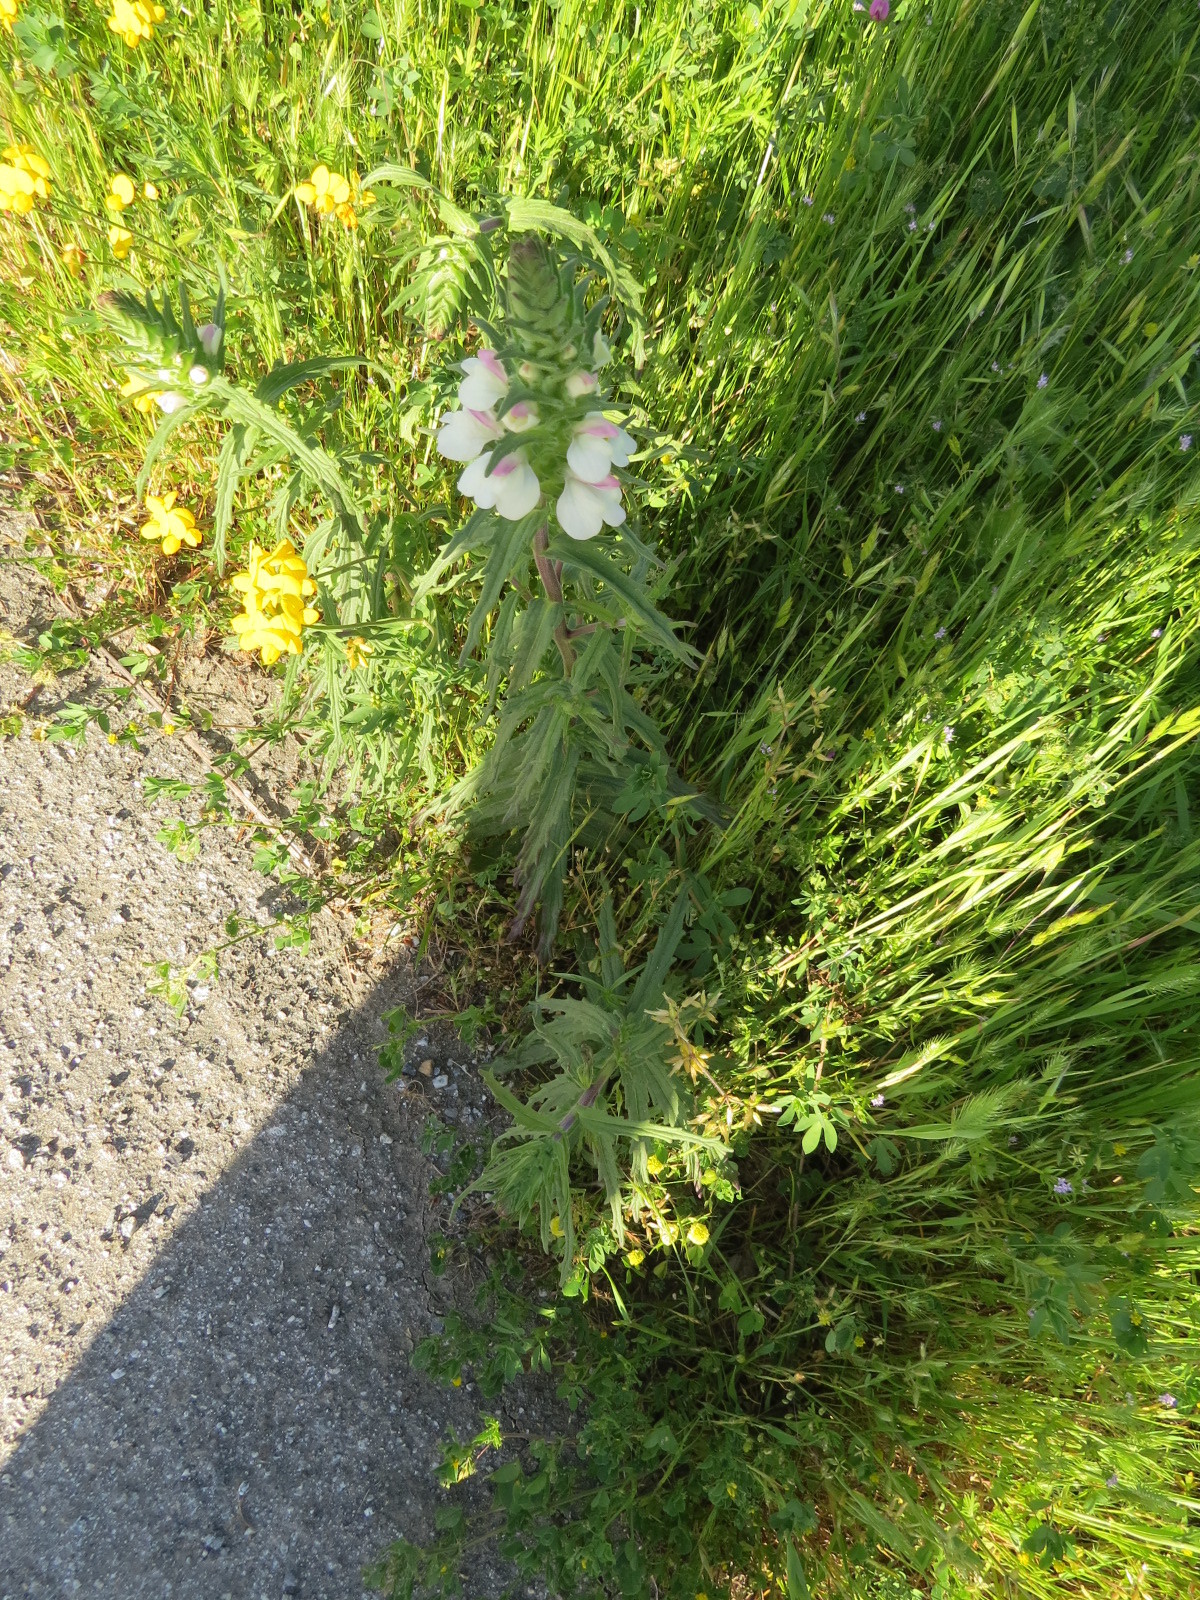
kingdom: Plantae
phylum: Tracheophyta
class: Magnoliopsida
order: Lamiales
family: Orobanchaceae
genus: Bellardia
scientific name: Bellardia trixago
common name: Mediterranean lineseed
